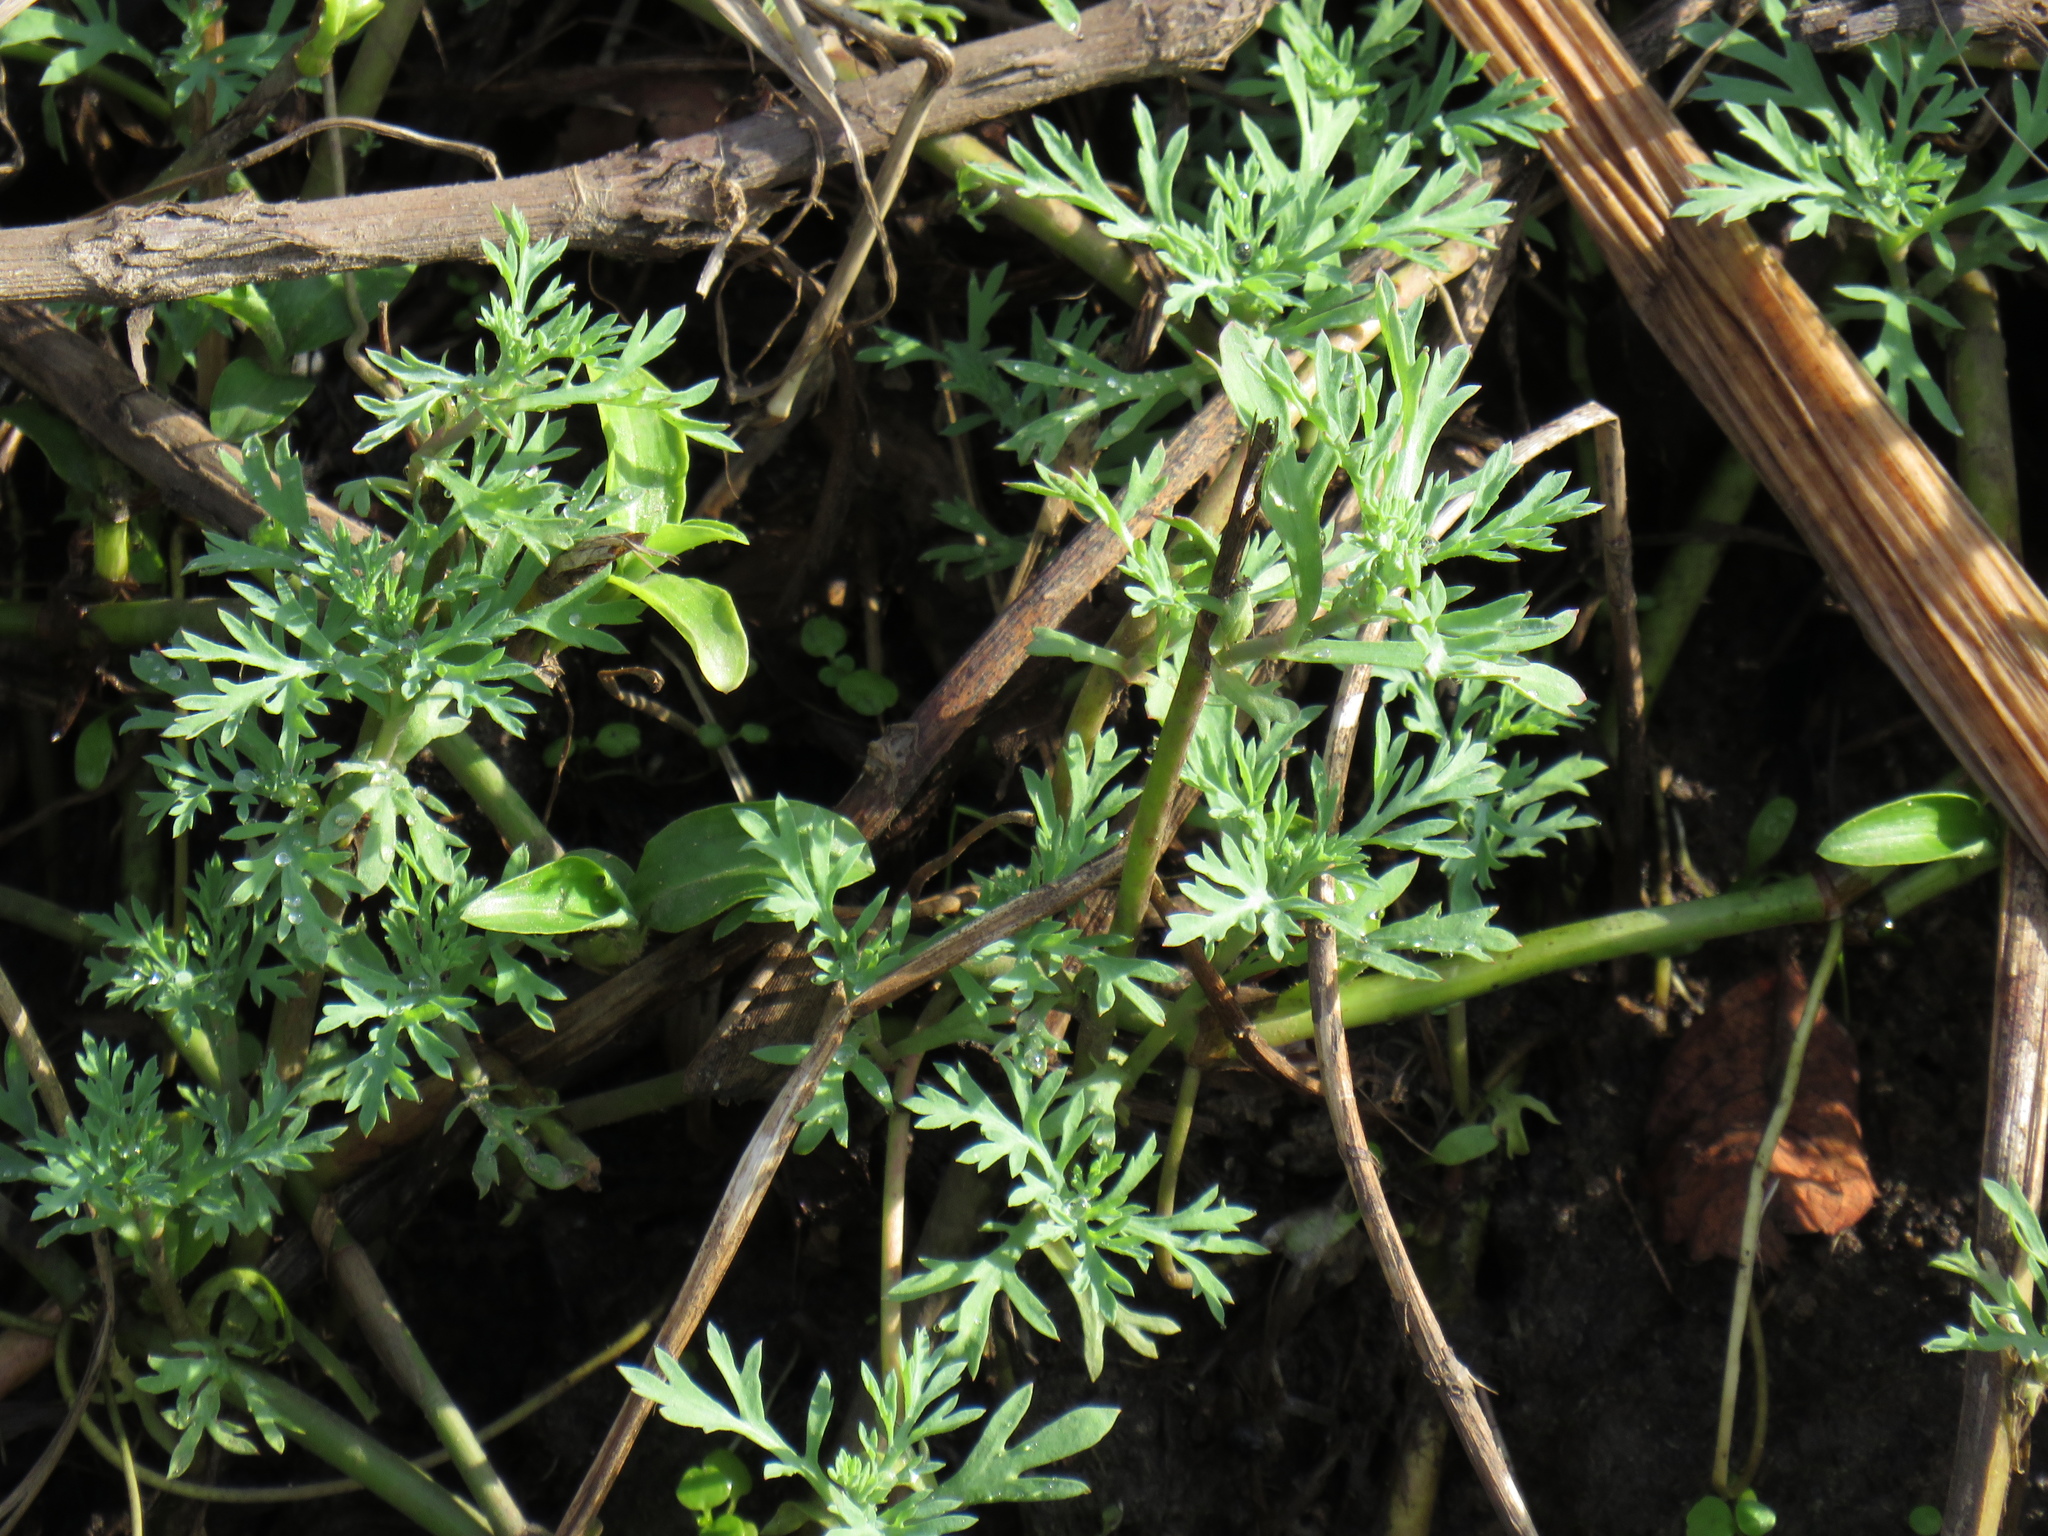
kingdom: Plantae
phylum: Tracheophyta
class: Magnoliopsida
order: Asterales
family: Asteraceae
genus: Cotula
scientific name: Cotula nigellifolia
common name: Staggerweed
